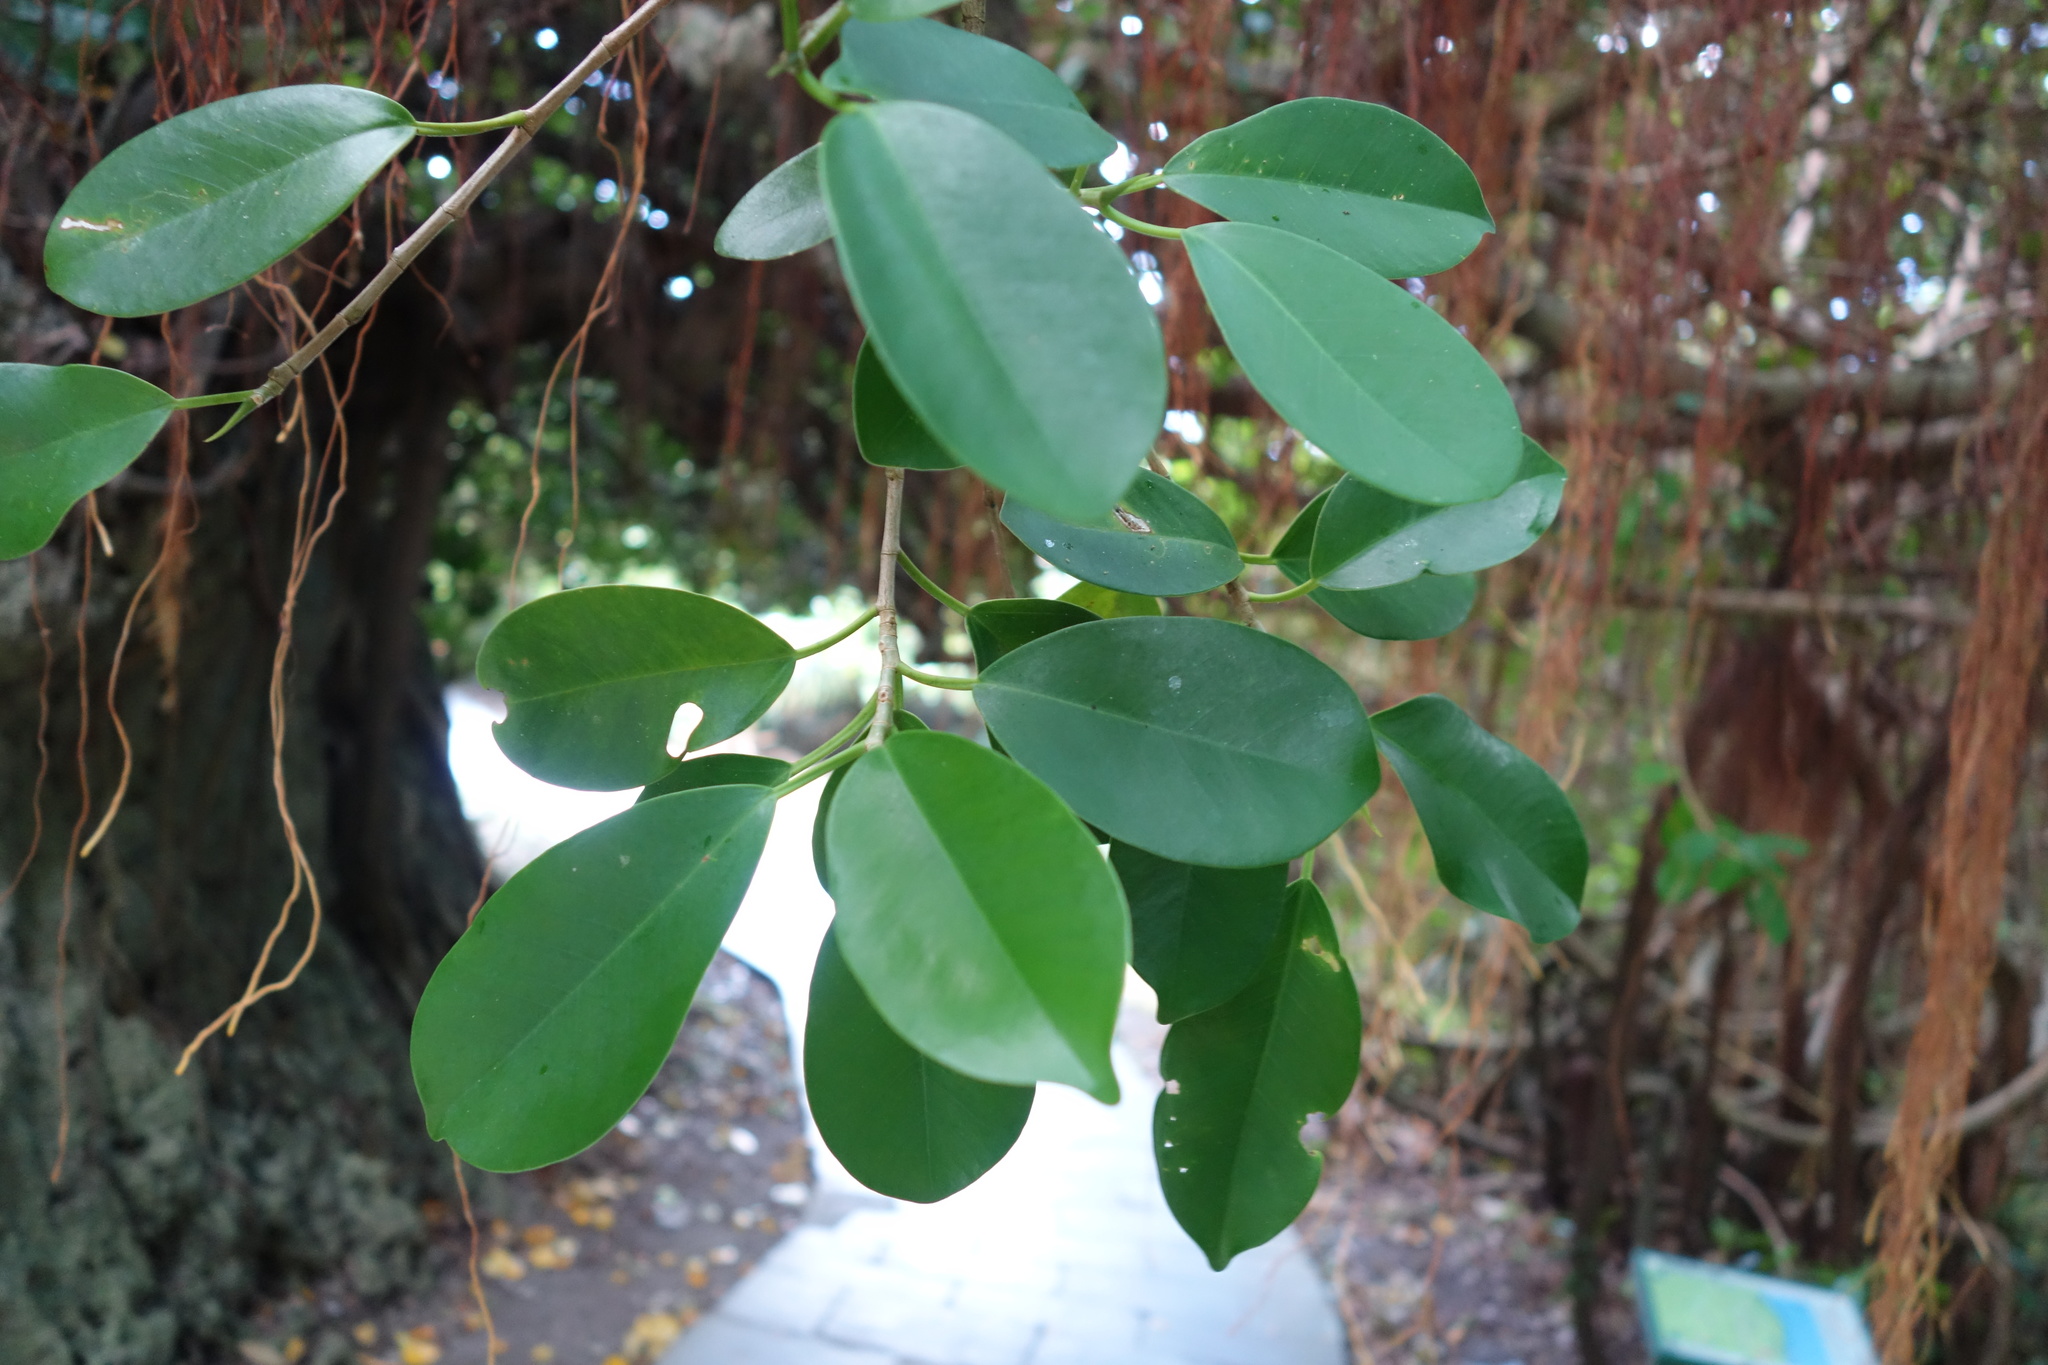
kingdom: Plantae
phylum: Tracheophyta
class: Magnoliopsida
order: Rosales
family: Moraceae
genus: Ficus
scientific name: Ficus microcarpa
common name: Chinese banyan
